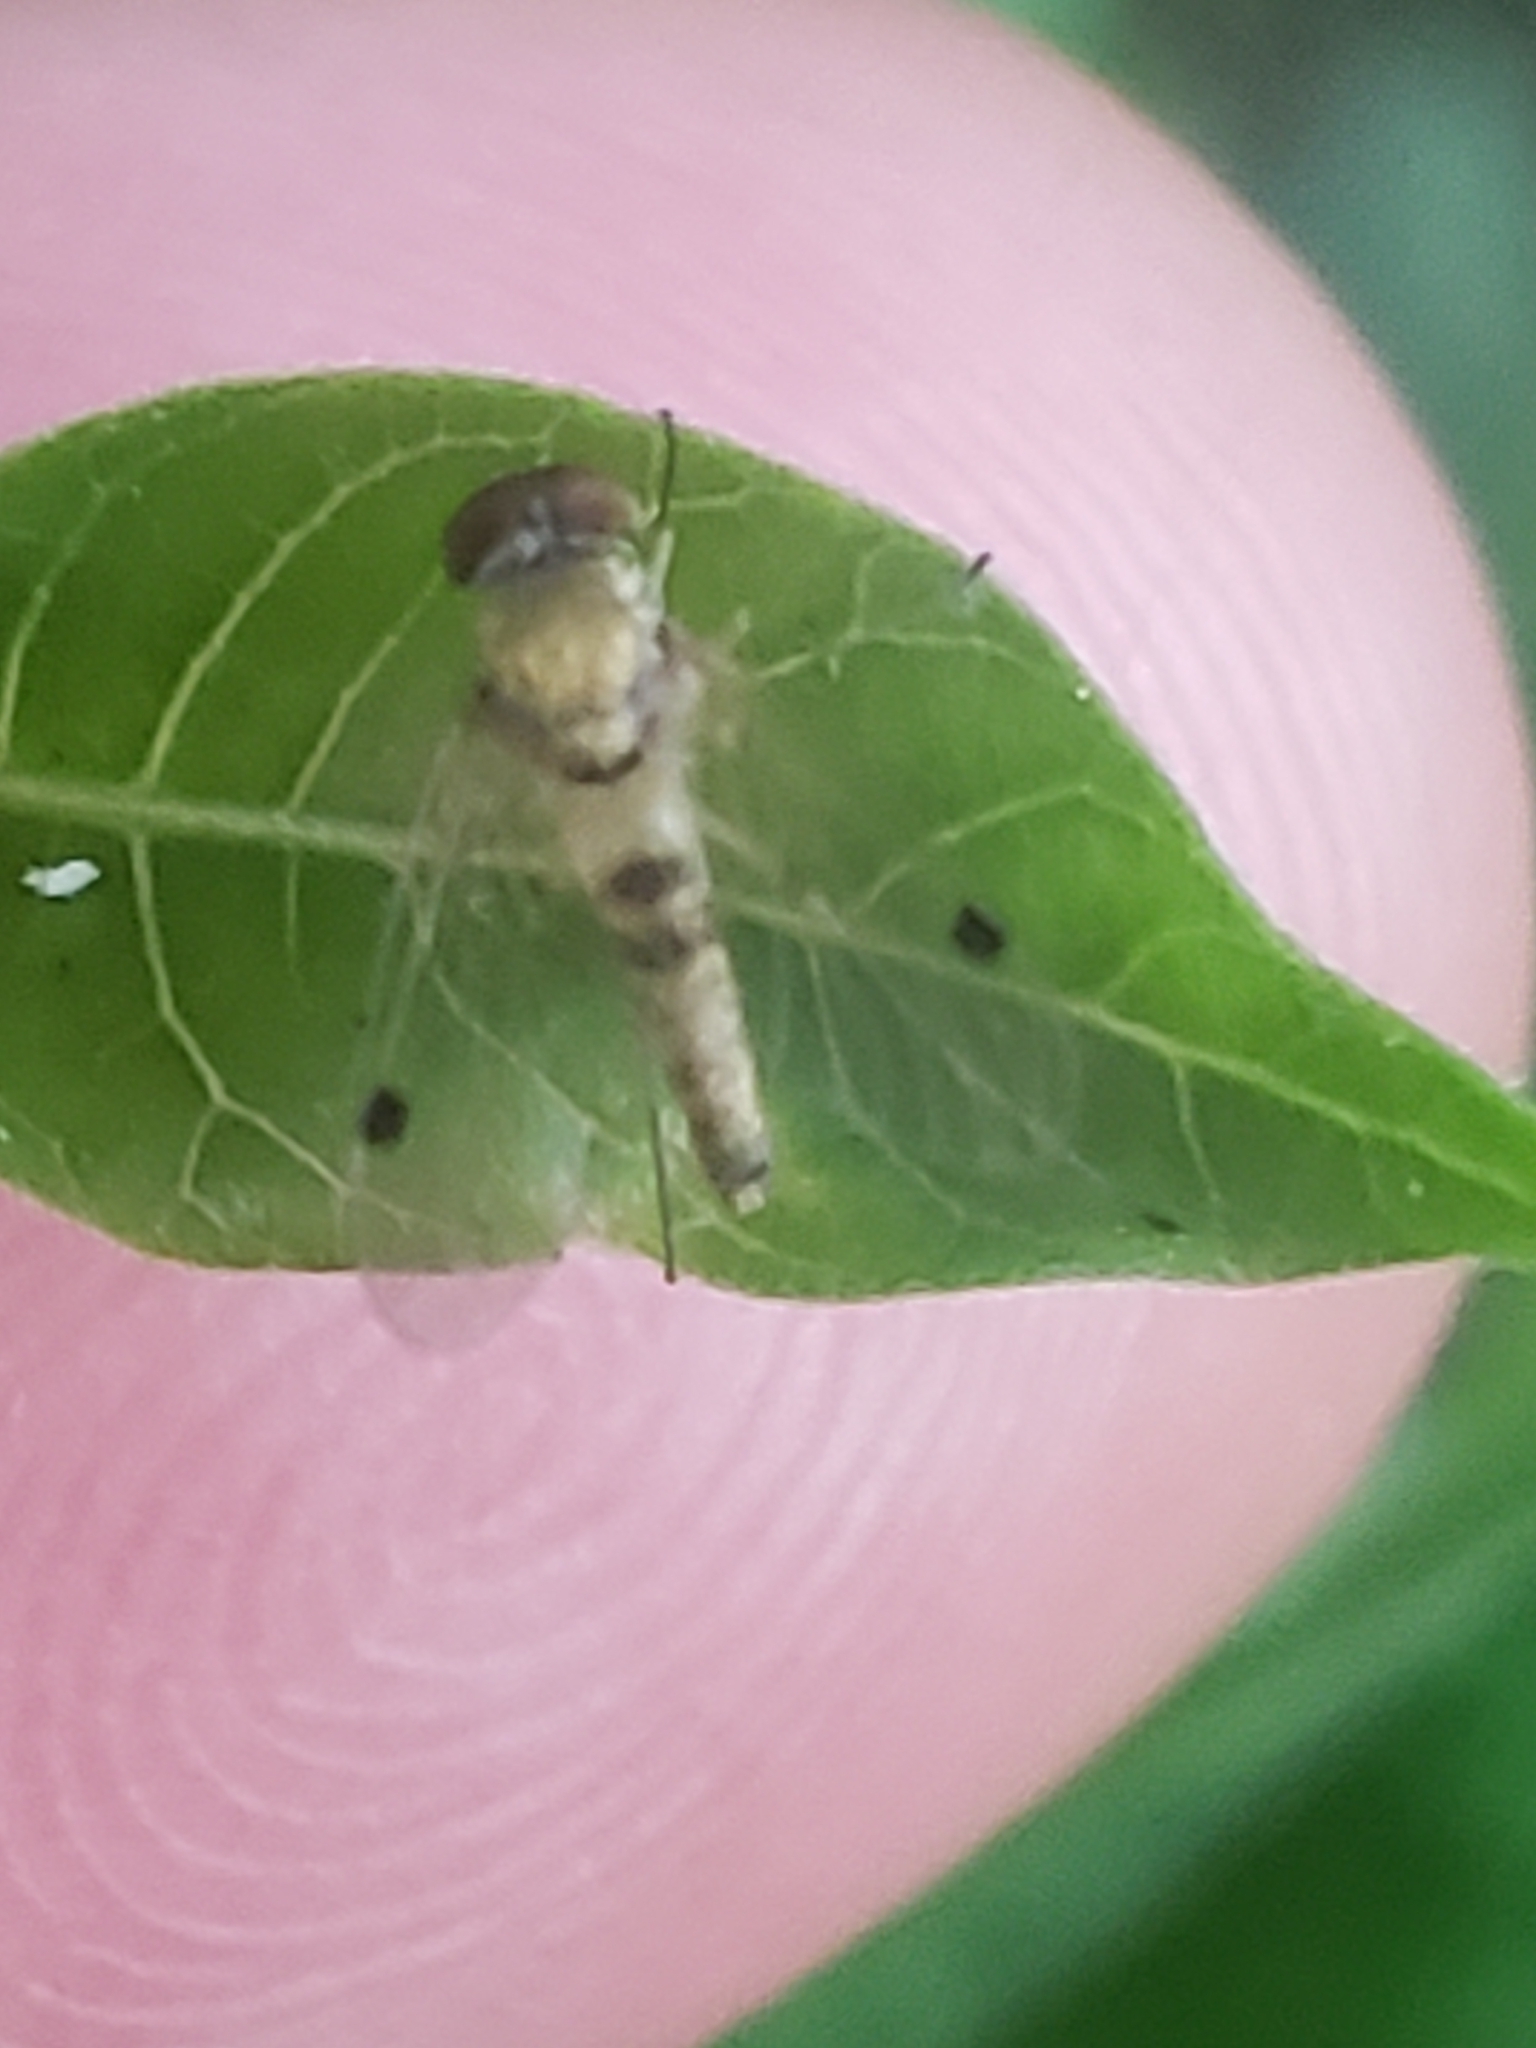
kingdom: Animalia
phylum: Arthropoda
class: Insecta
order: Diptera
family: Rhagionidae
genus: Chrysopilus
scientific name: Chrysopilus modestus
